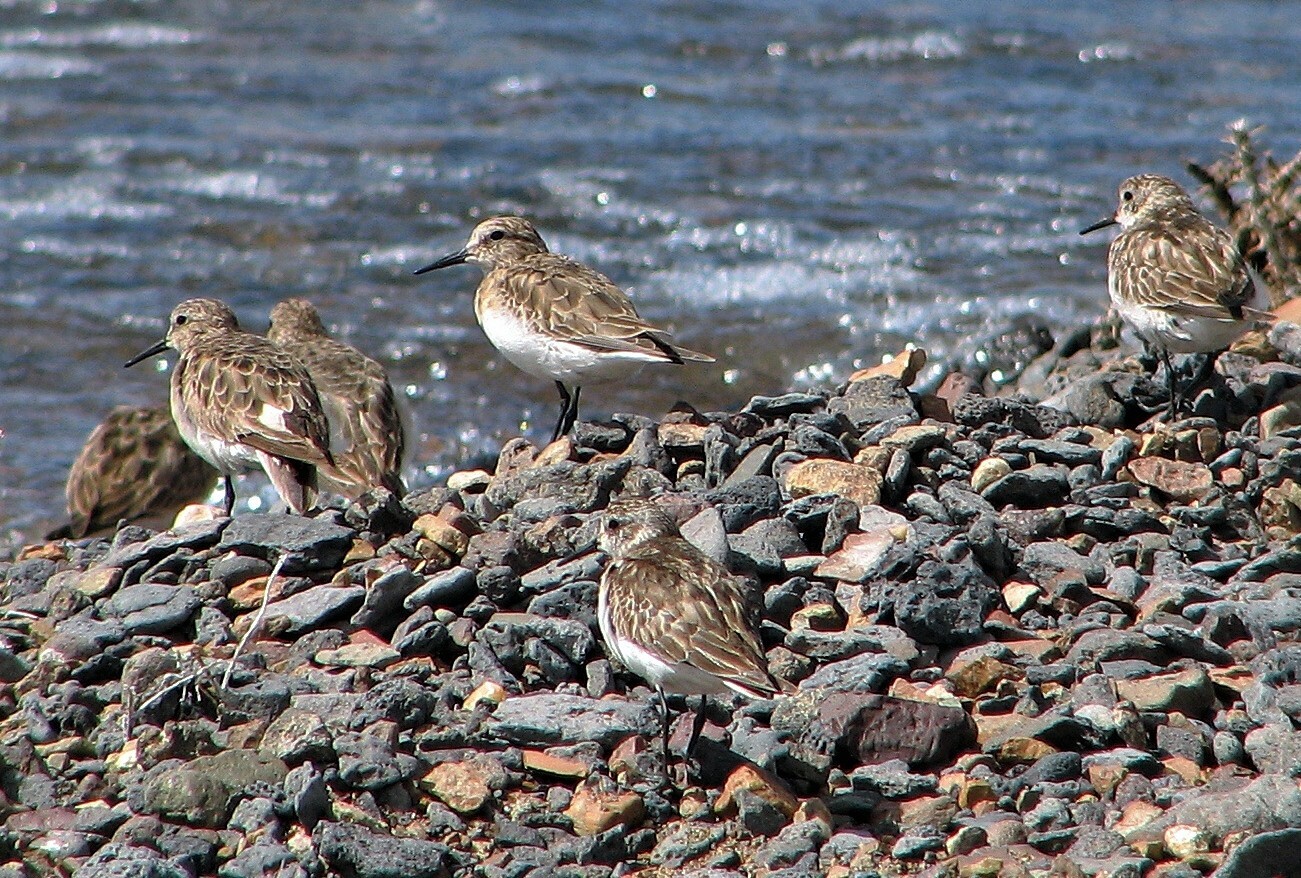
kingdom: Animalia
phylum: Chordata
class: Aves
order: Charadriiformes
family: Scolopacidae
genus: Calidris
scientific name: Calidris bairdii
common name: Baird's sandpiper
